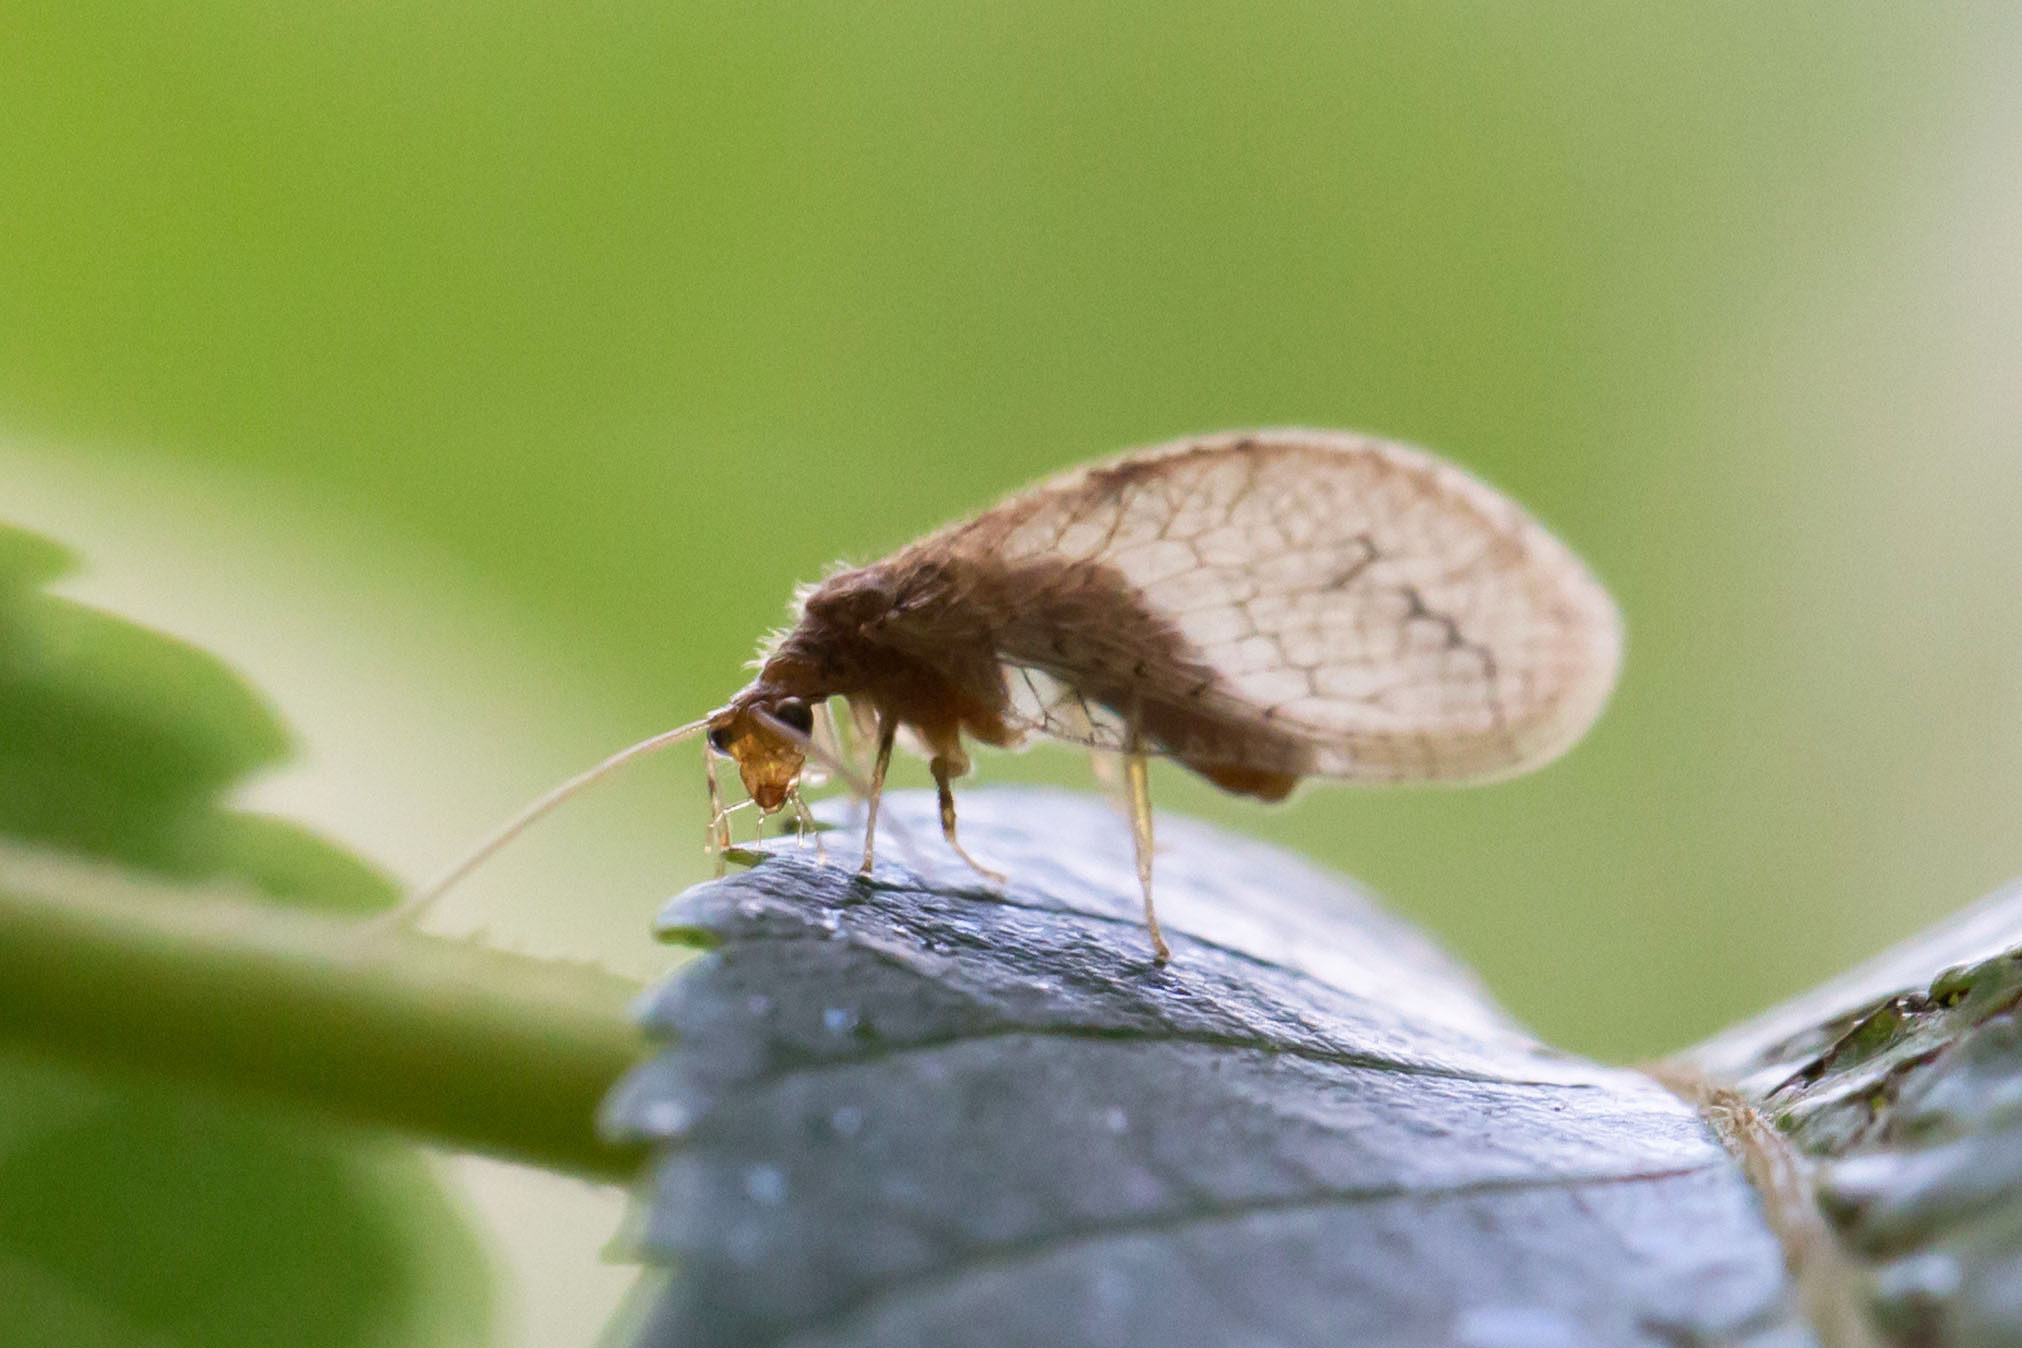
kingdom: Animalia
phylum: Arthropoda
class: Insecta
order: Neuroptera
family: Hemerobiidae
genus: Micromus
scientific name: Micromus posticus
